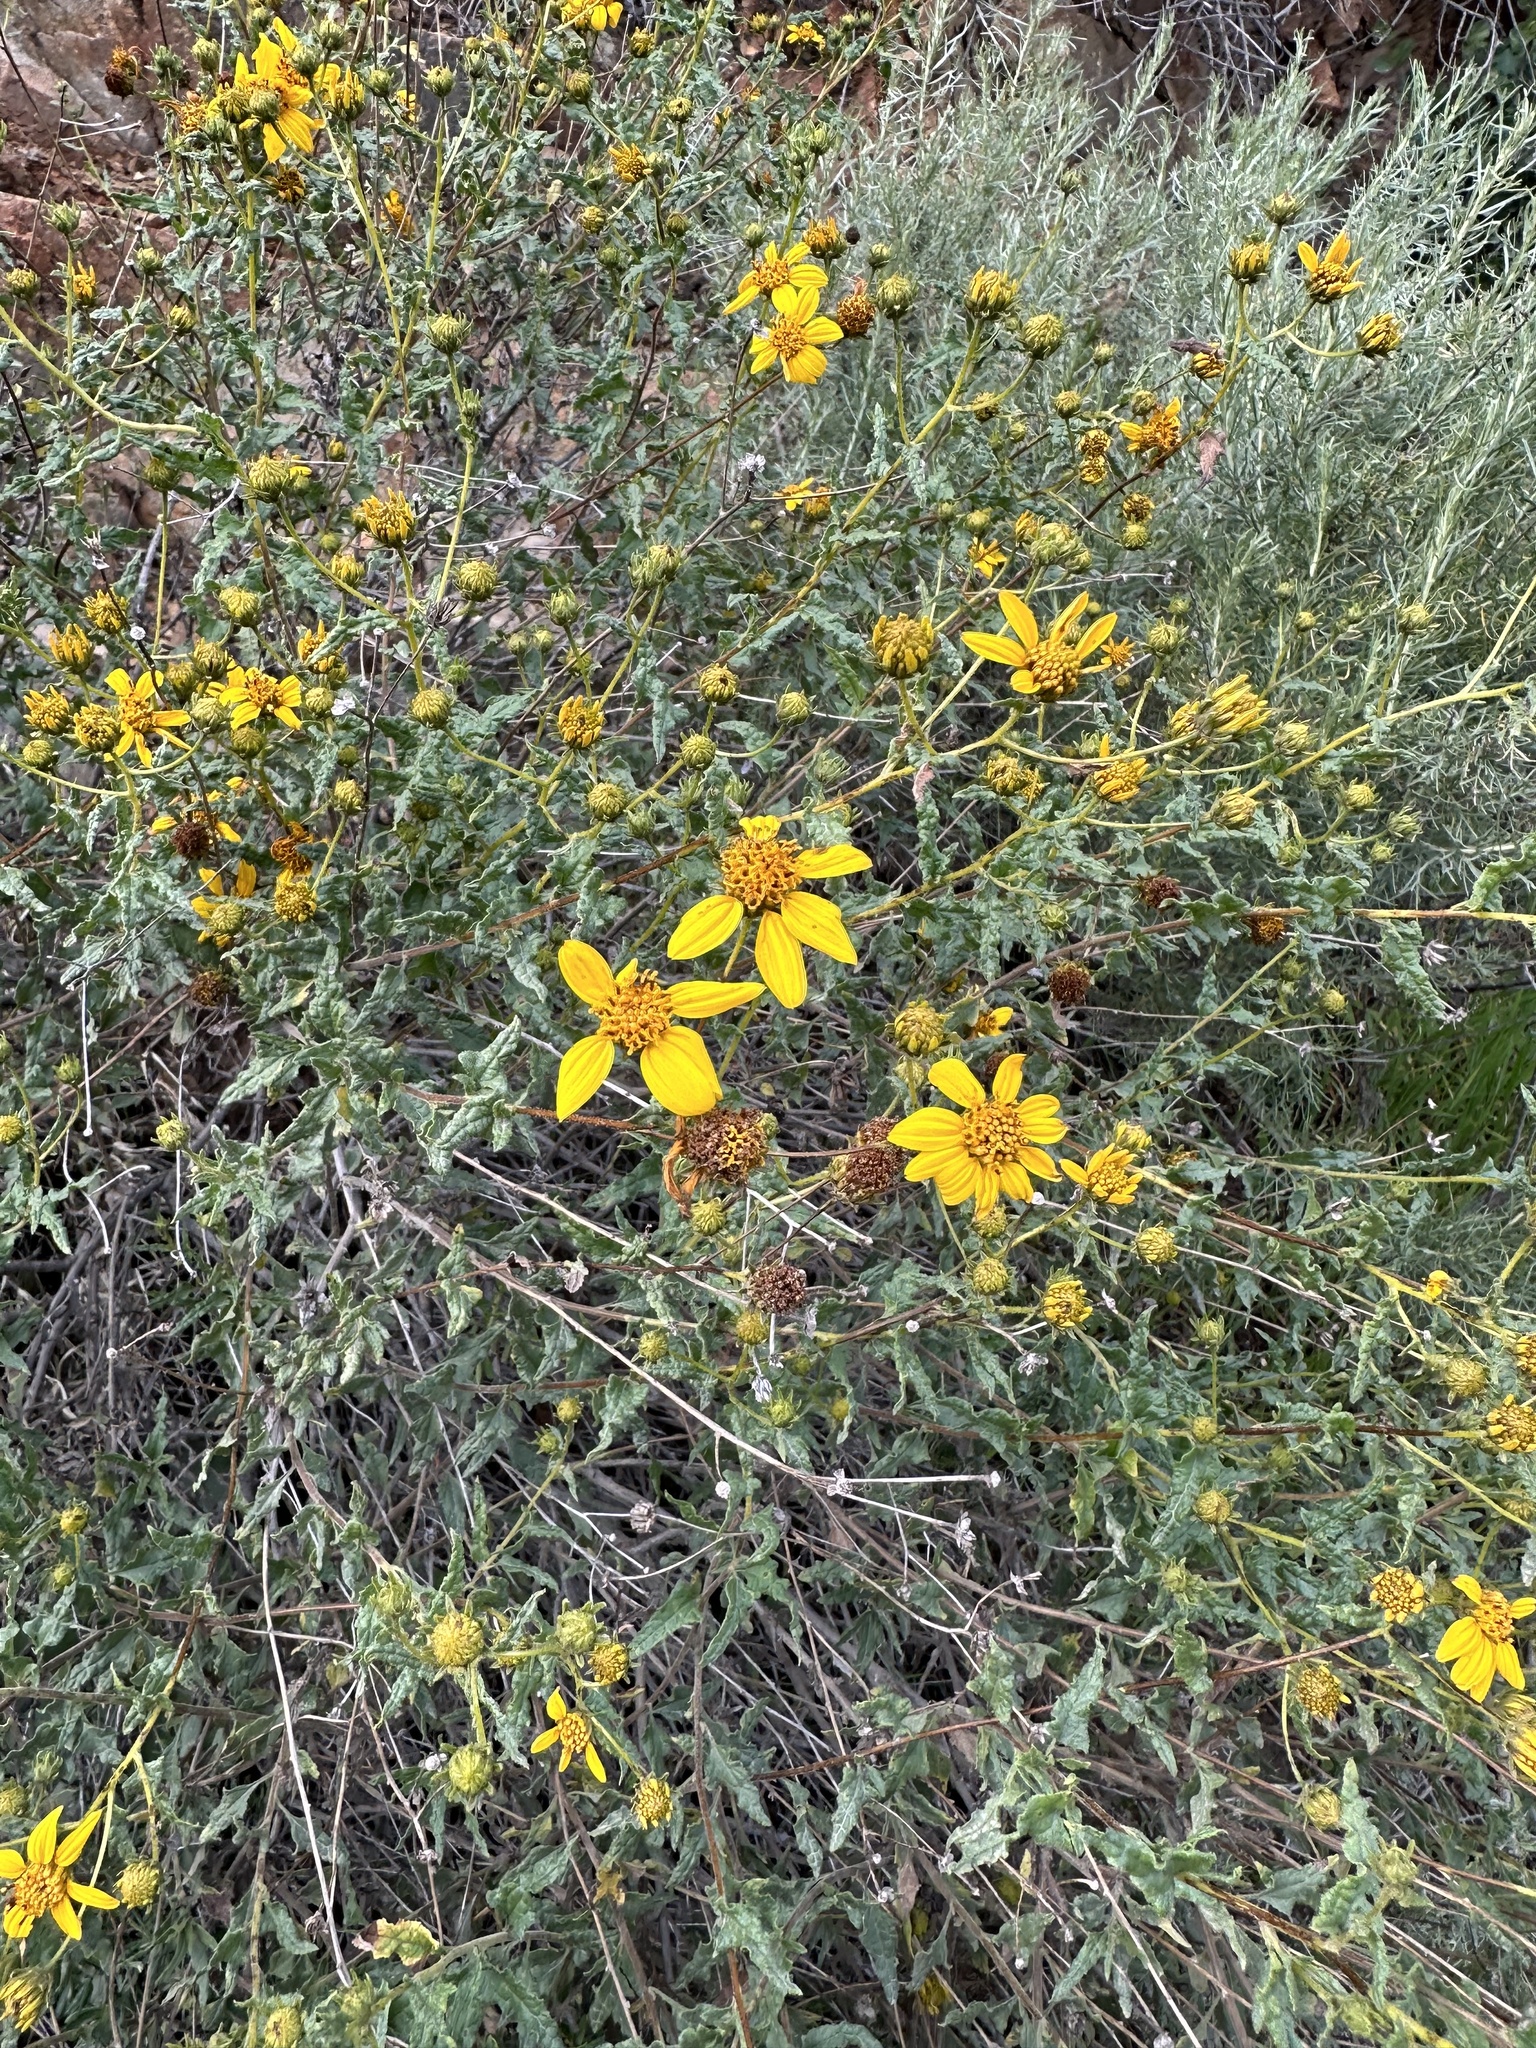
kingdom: Plantae
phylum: Tracheophyta
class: Magnoliopsida
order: Asterales
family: Asteraceae
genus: Bahiopsis
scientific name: Bahiopsis laciniata
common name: San diego county viguiera
